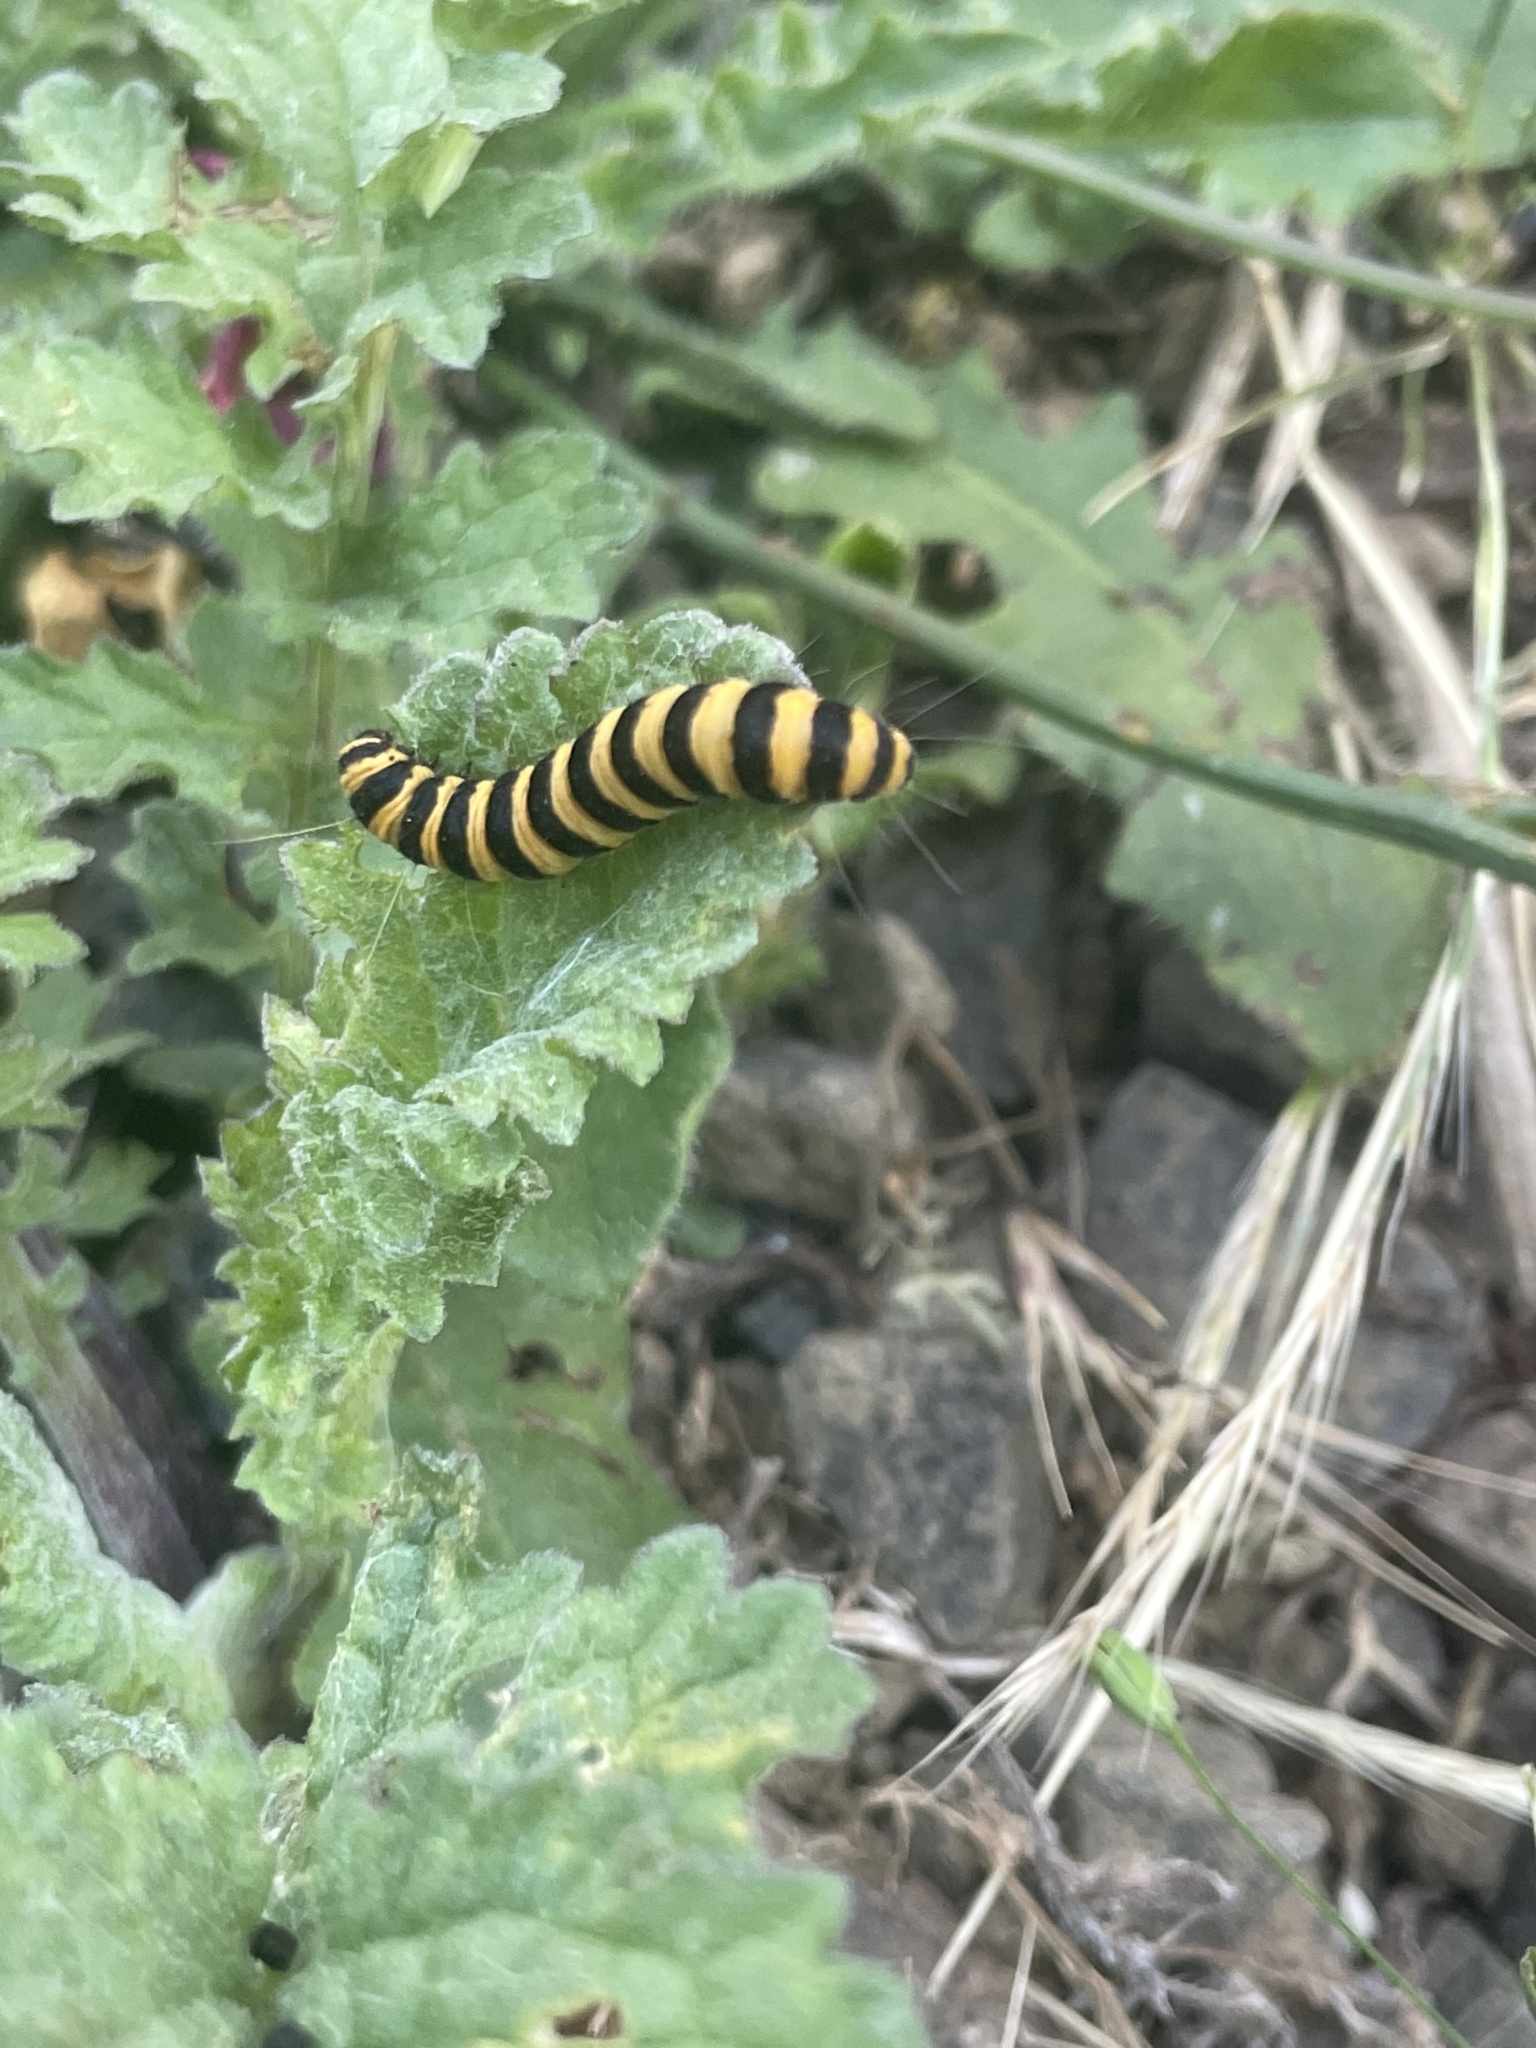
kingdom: Animalia
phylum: Arthropoda
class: Insecta
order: Lepidoptera
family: Erebidae
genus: Tyria
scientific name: Tyria jacobaeae
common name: Cinnabar
